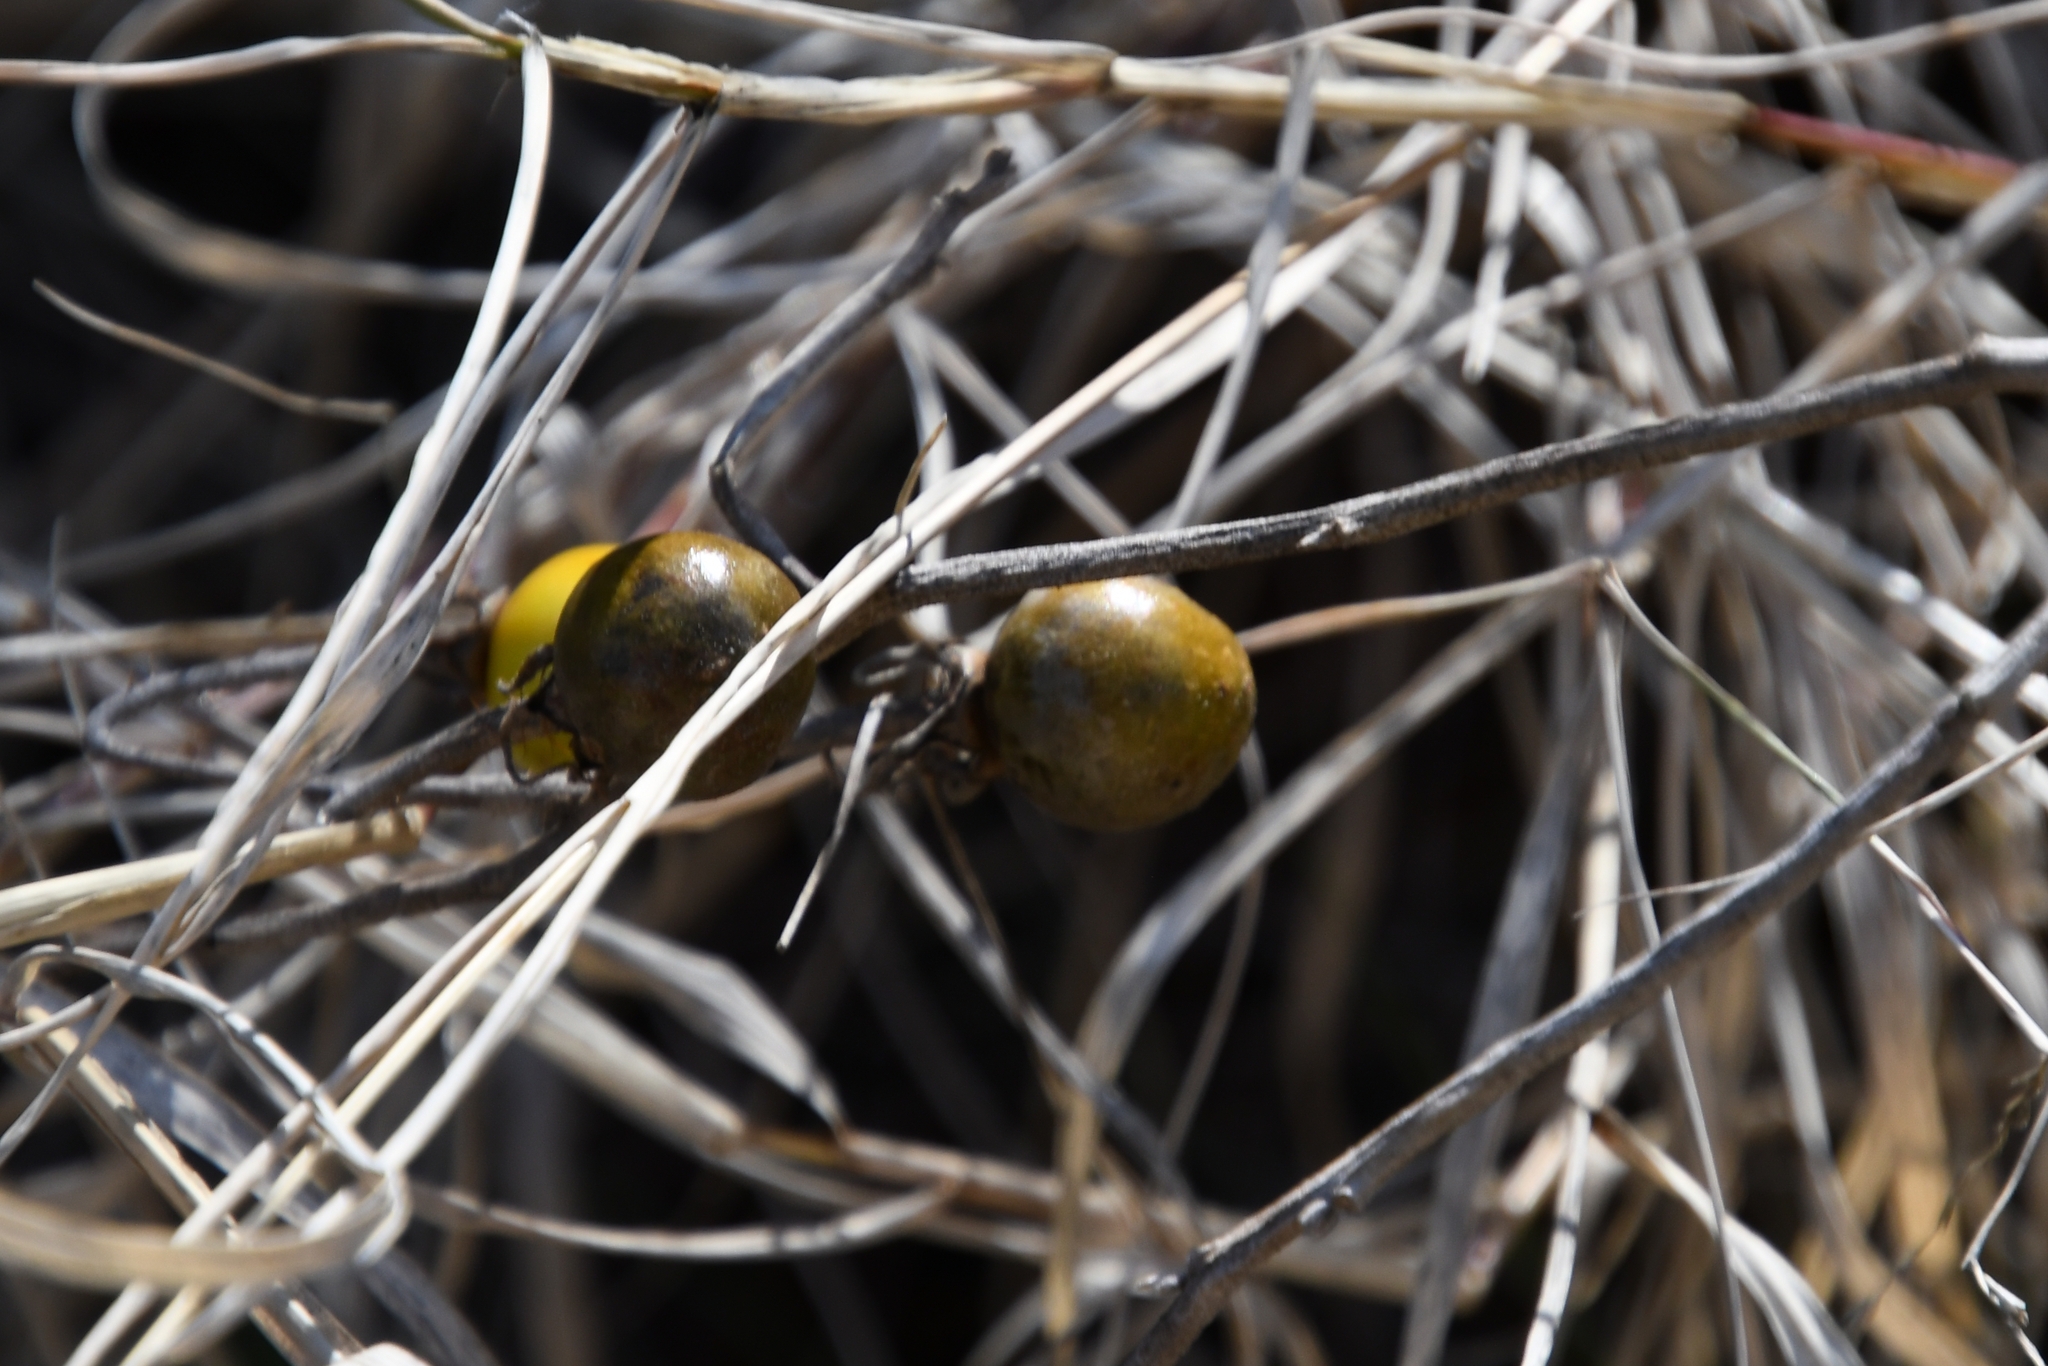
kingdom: Plantae
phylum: Tracheophyta
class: Magnoliopsida
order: Solanales
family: Solanaceae
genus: Solanum
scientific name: Solanum elaeagnifolium
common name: Silverleaf nightshade
